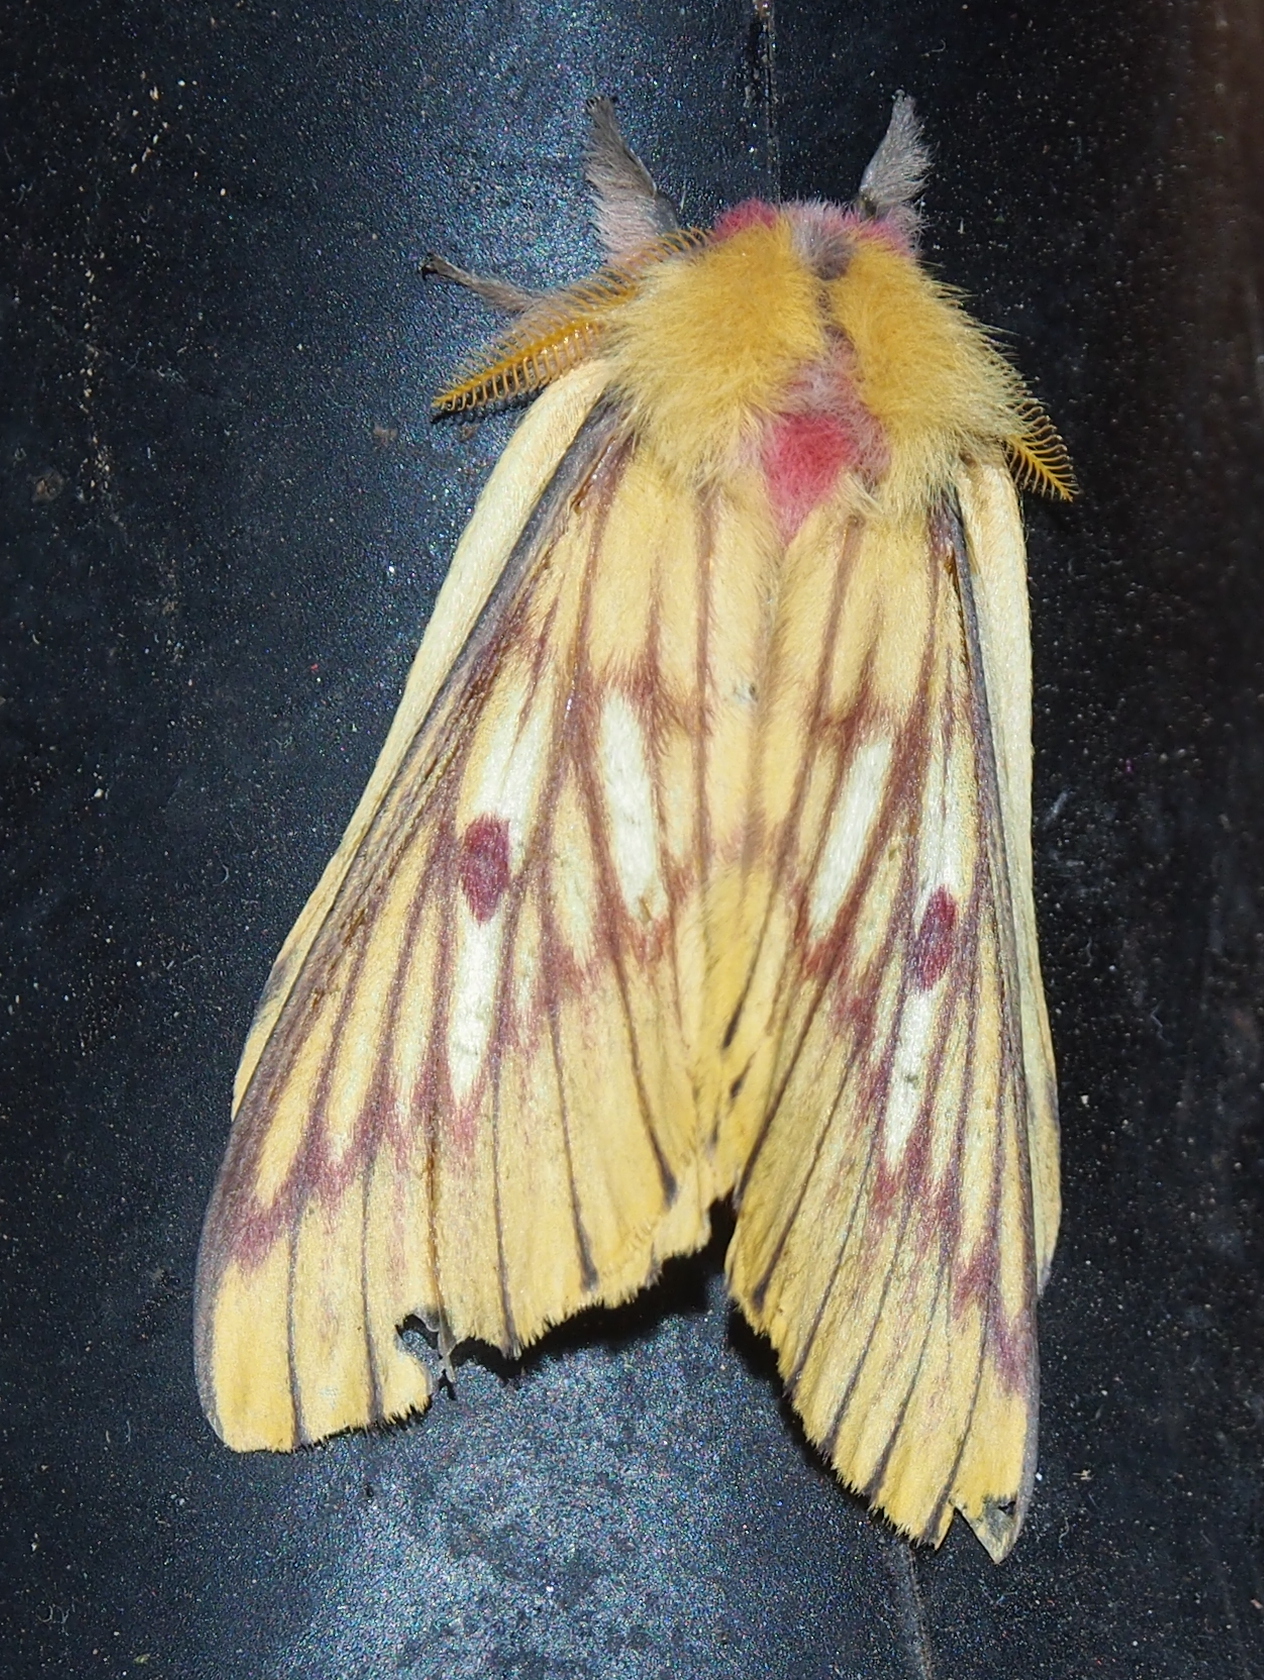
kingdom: Animalia
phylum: Arthropoda
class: Insecta
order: Lepidoptera
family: Saturniidae
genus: Xanthodirphia
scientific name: Xanthodirphia amarilla
